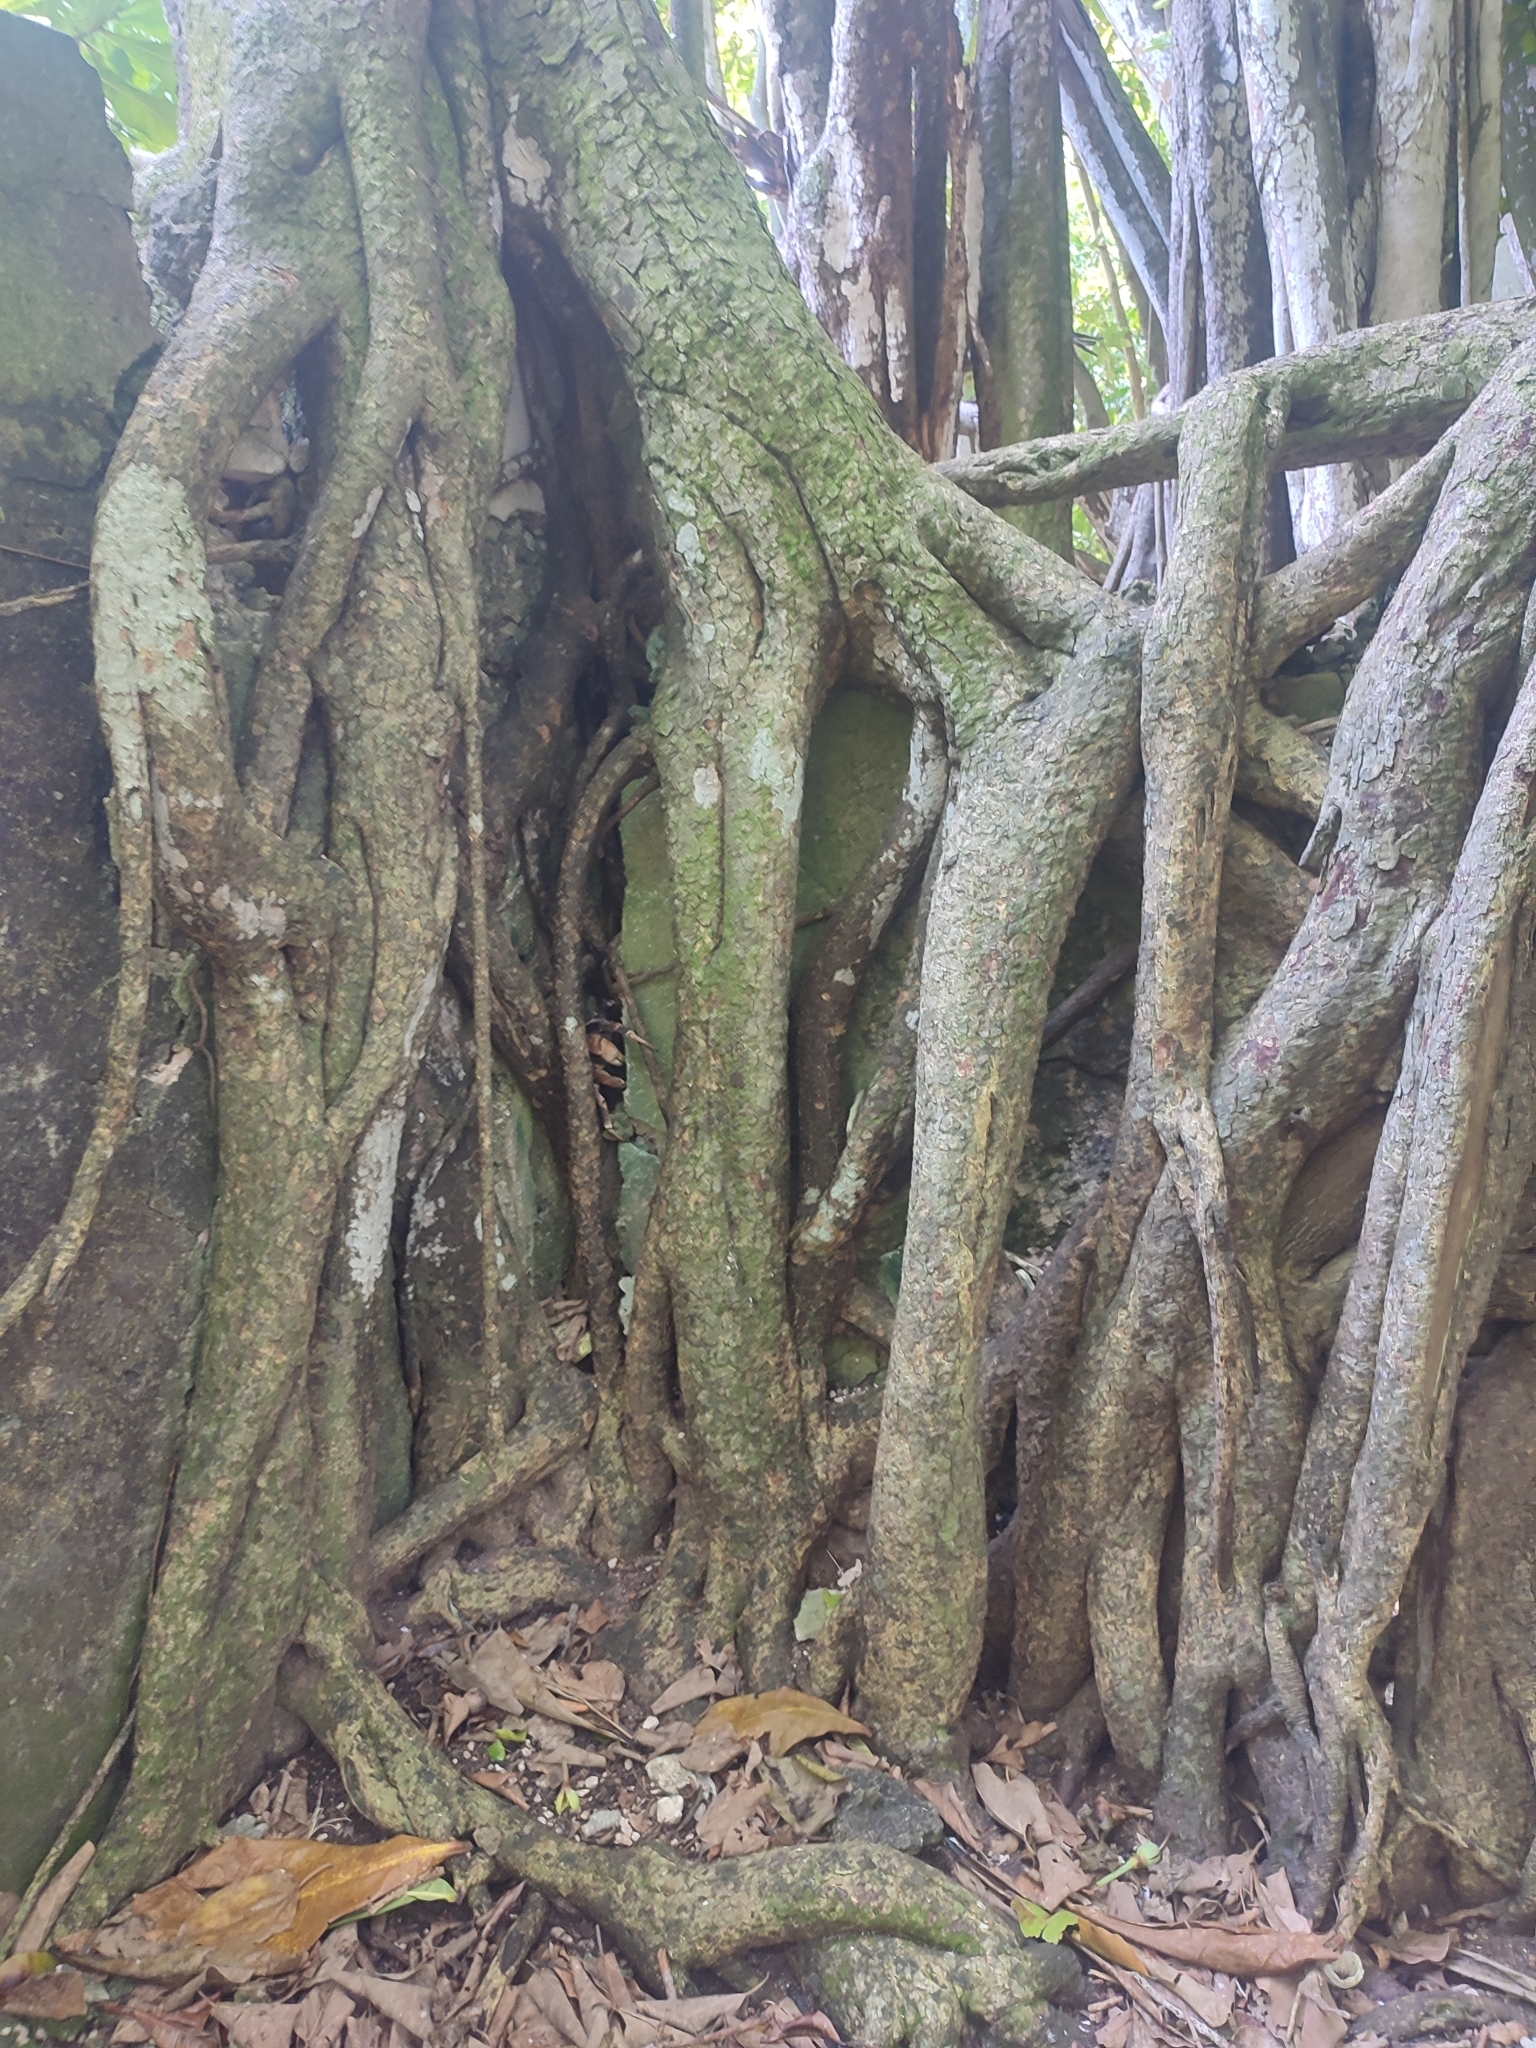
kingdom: Plantae
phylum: Tracheophyta
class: Magnoliopsida
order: Rosales
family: Moraceae
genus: Ficus
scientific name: Ficus benghalensis
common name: Indian banyan
